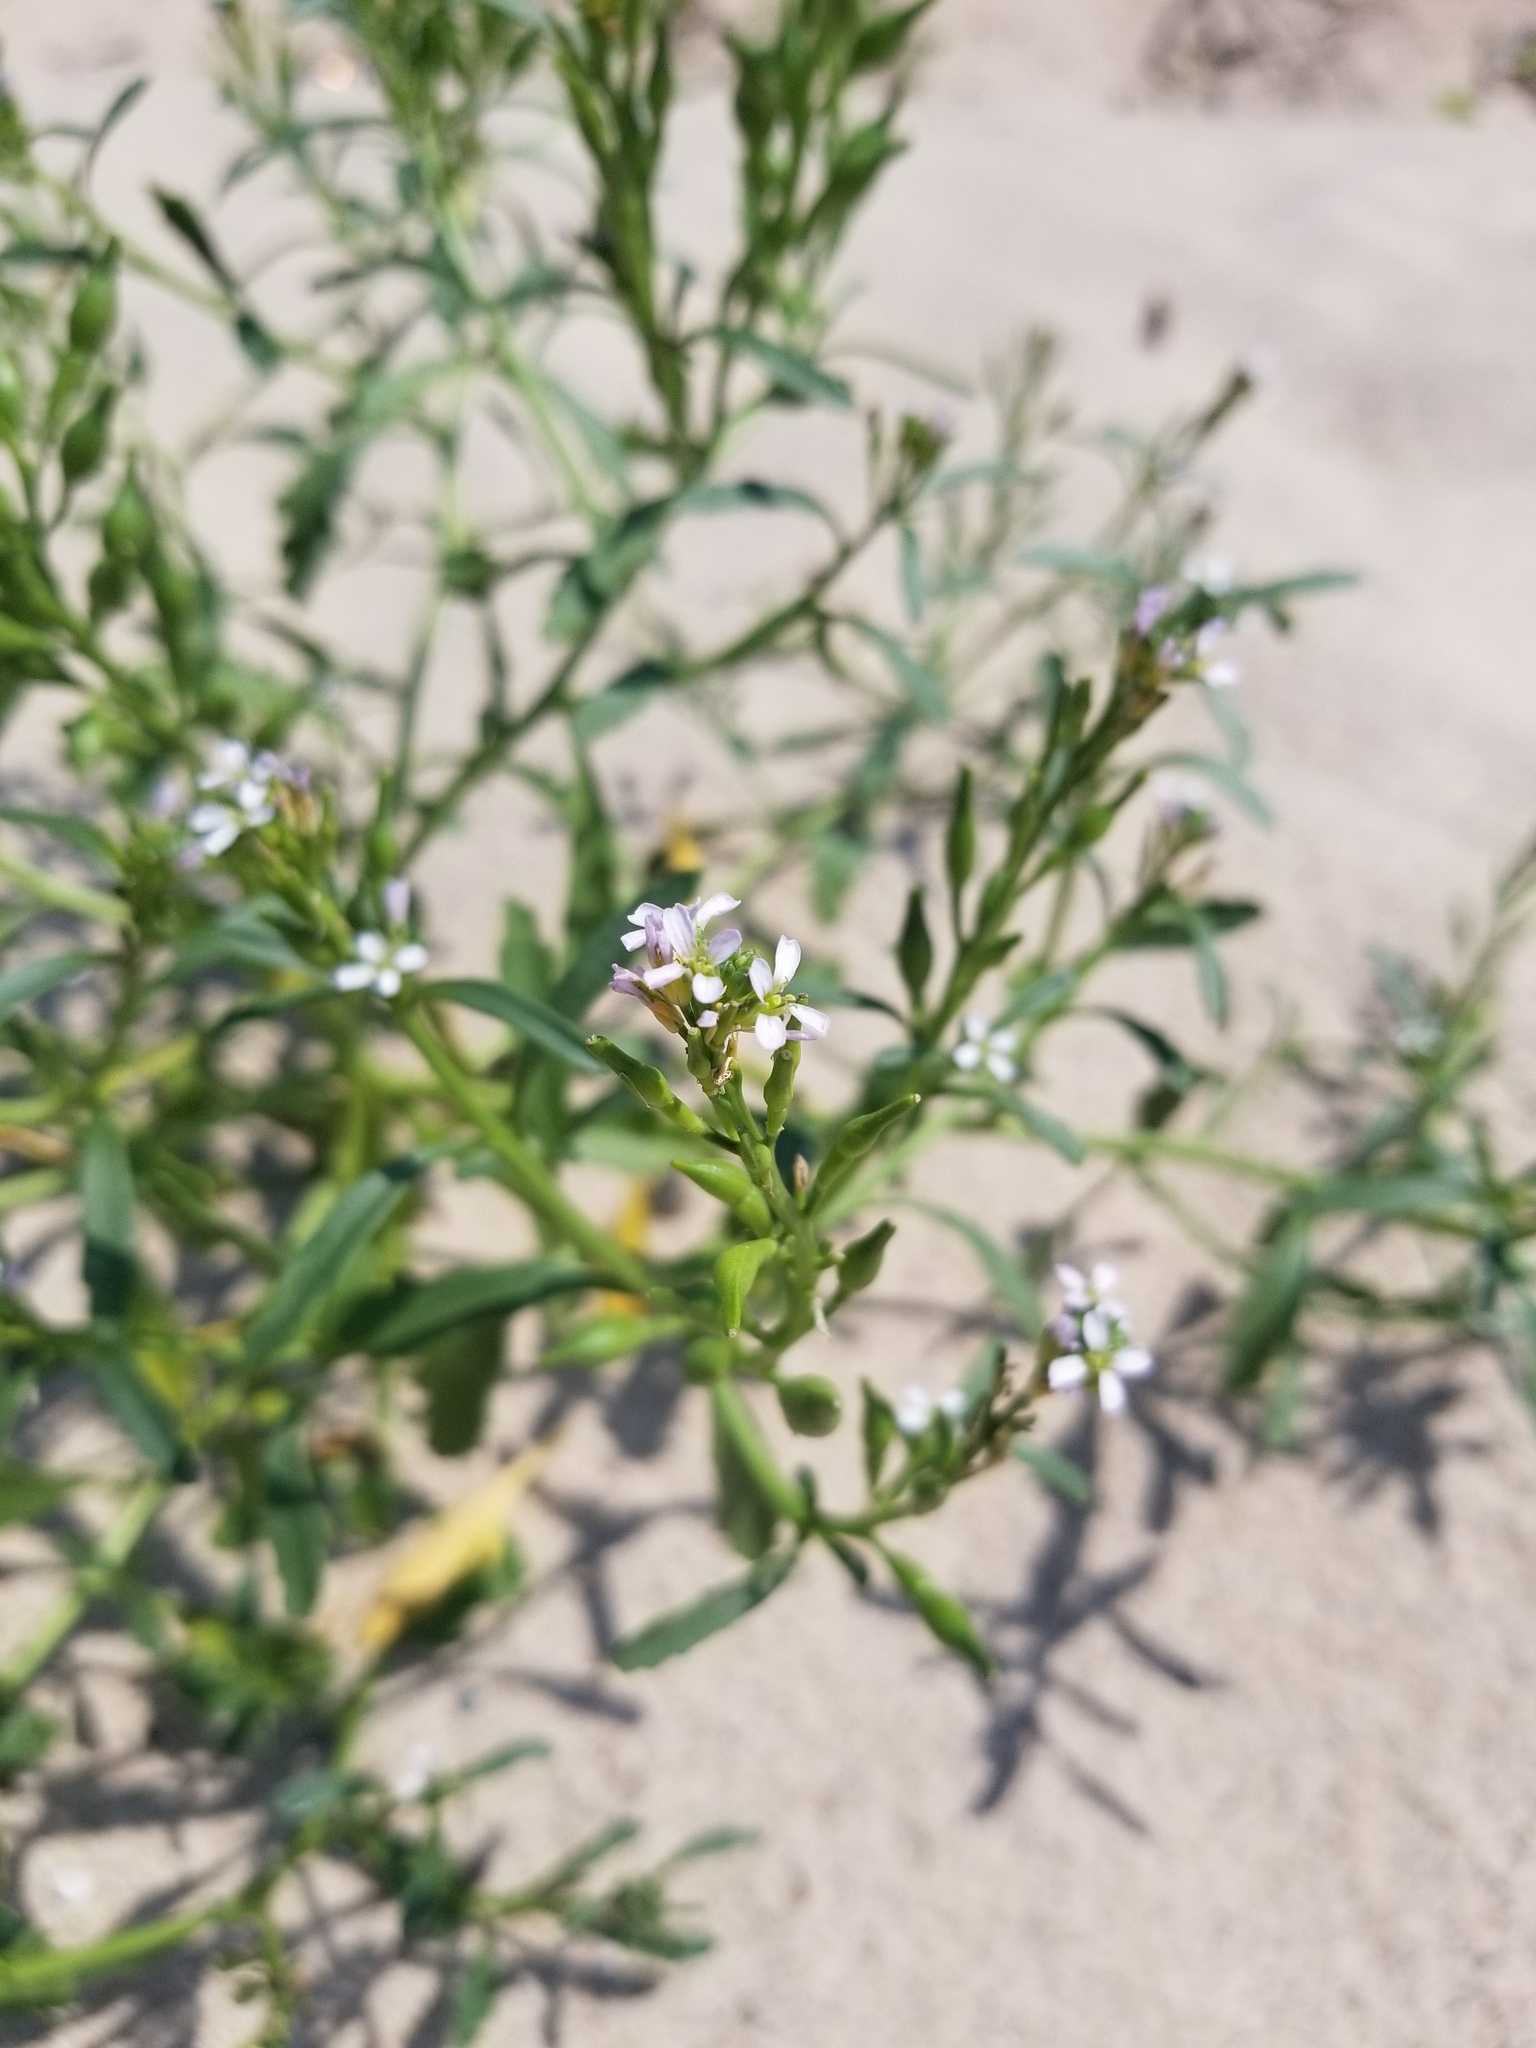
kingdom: Plantae
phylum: Tracheophyta
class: Magnoliopsida
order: Brassicales
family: Brassicaceae
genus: Cakile
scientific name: Cakile edentula
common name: American sea rocket
